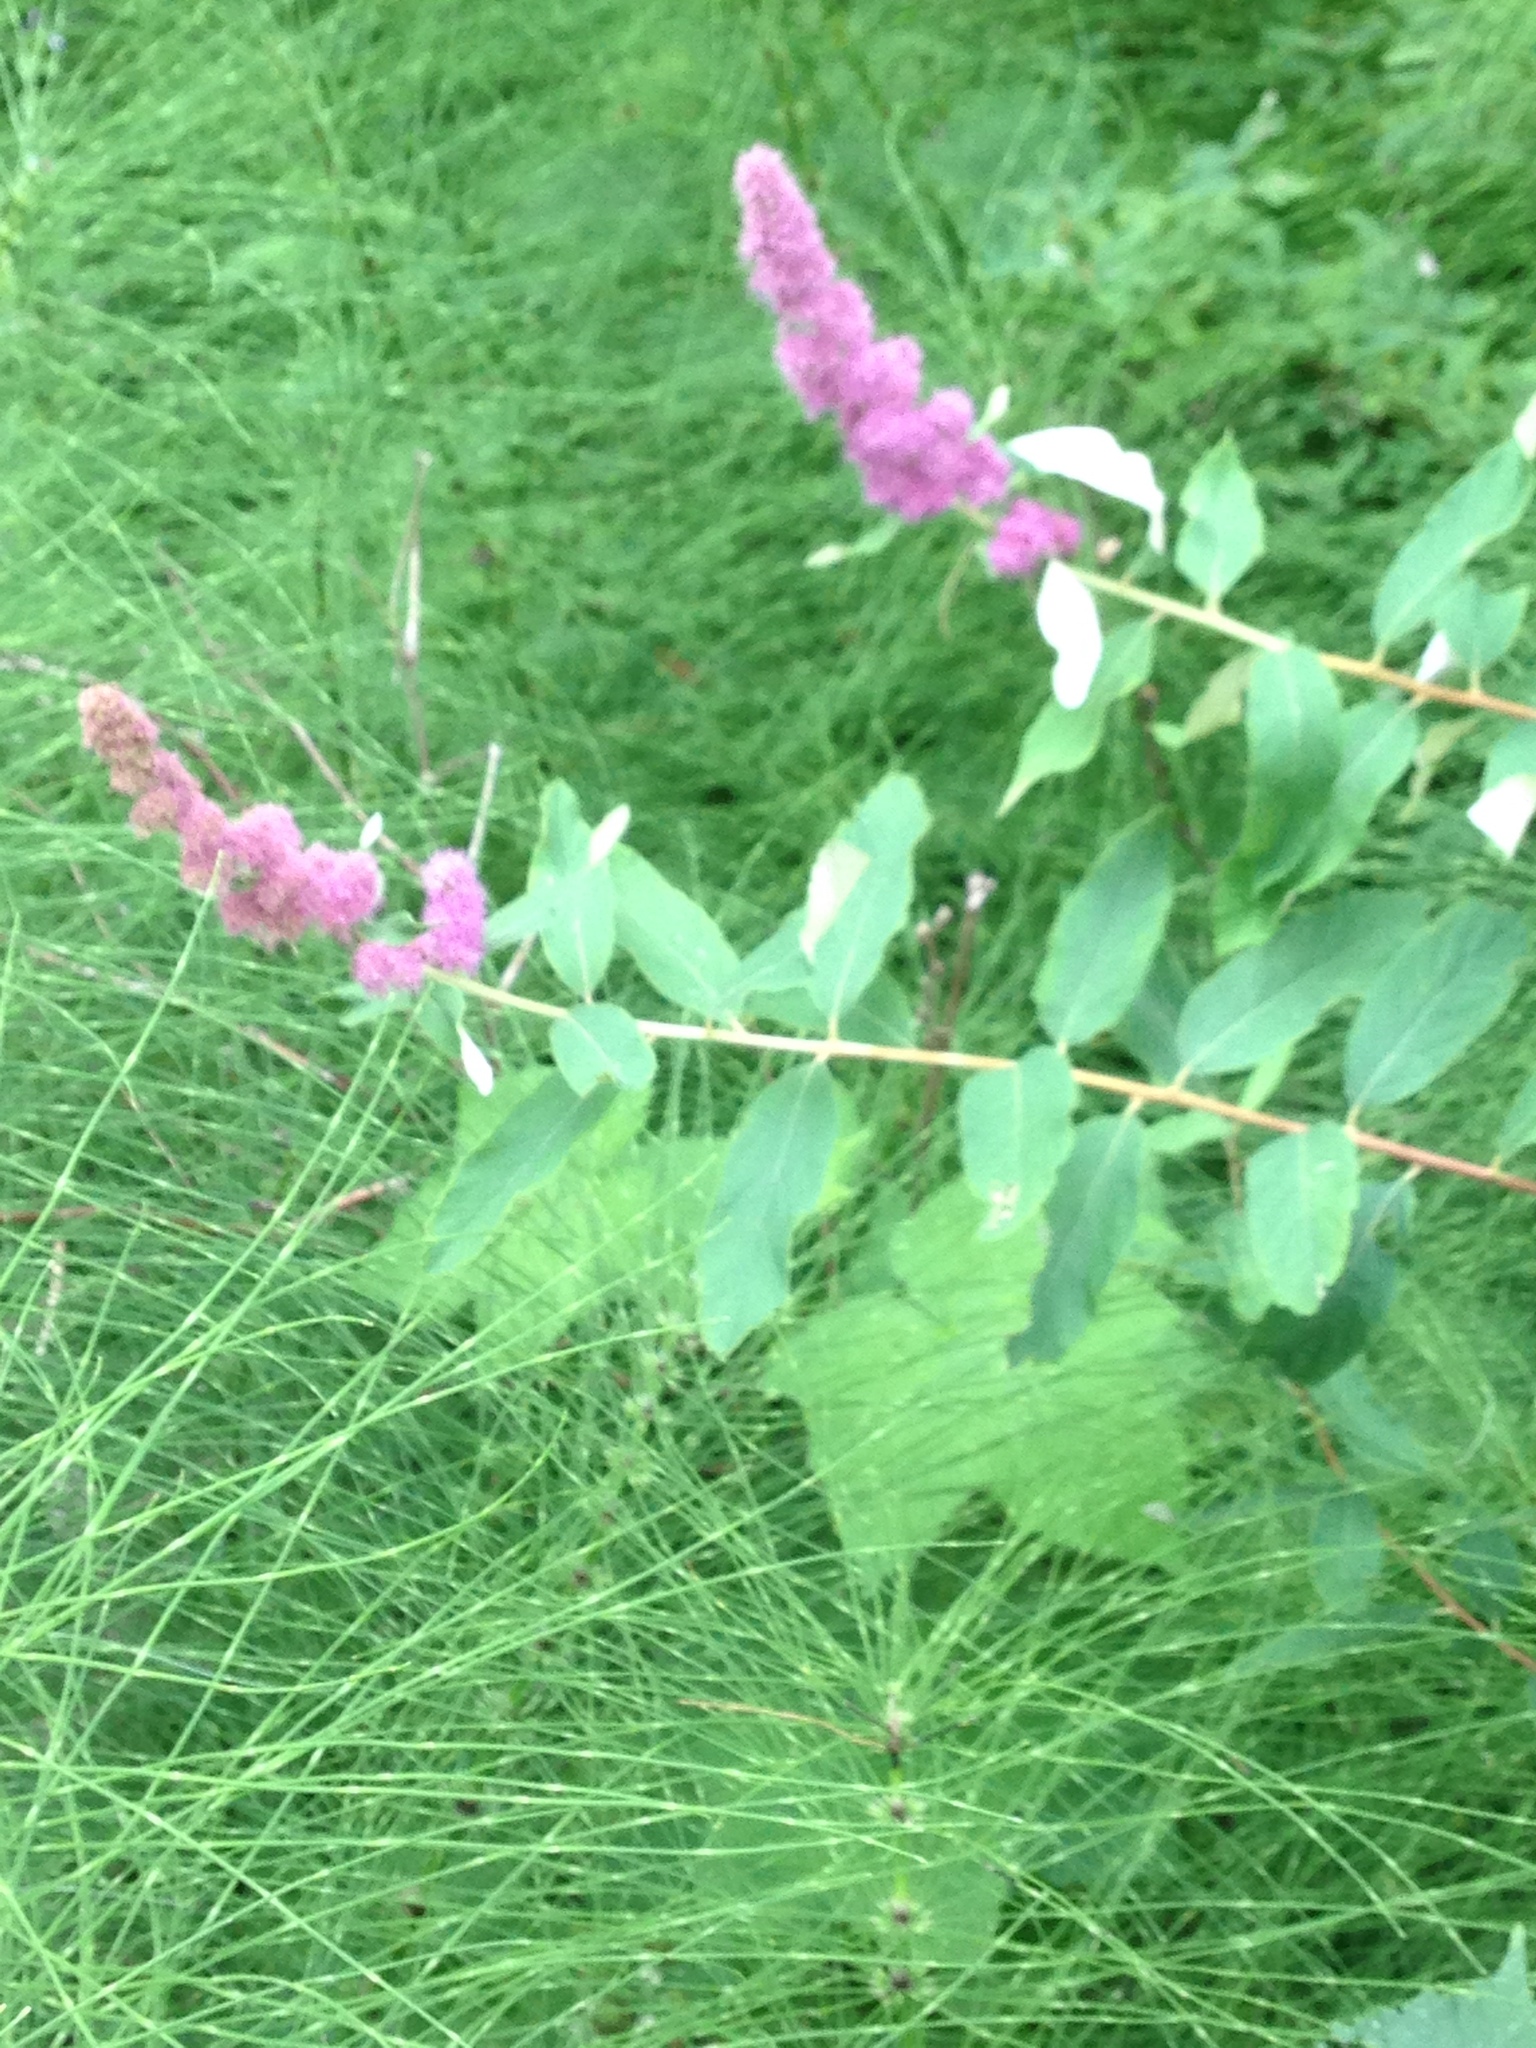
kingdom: Plantae
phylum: Tracheophyta
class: Magnoliopsida
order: Rosales
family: Rosaceae
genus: Spiraea
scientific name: Spiraea douglasii
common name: Steeplebush
